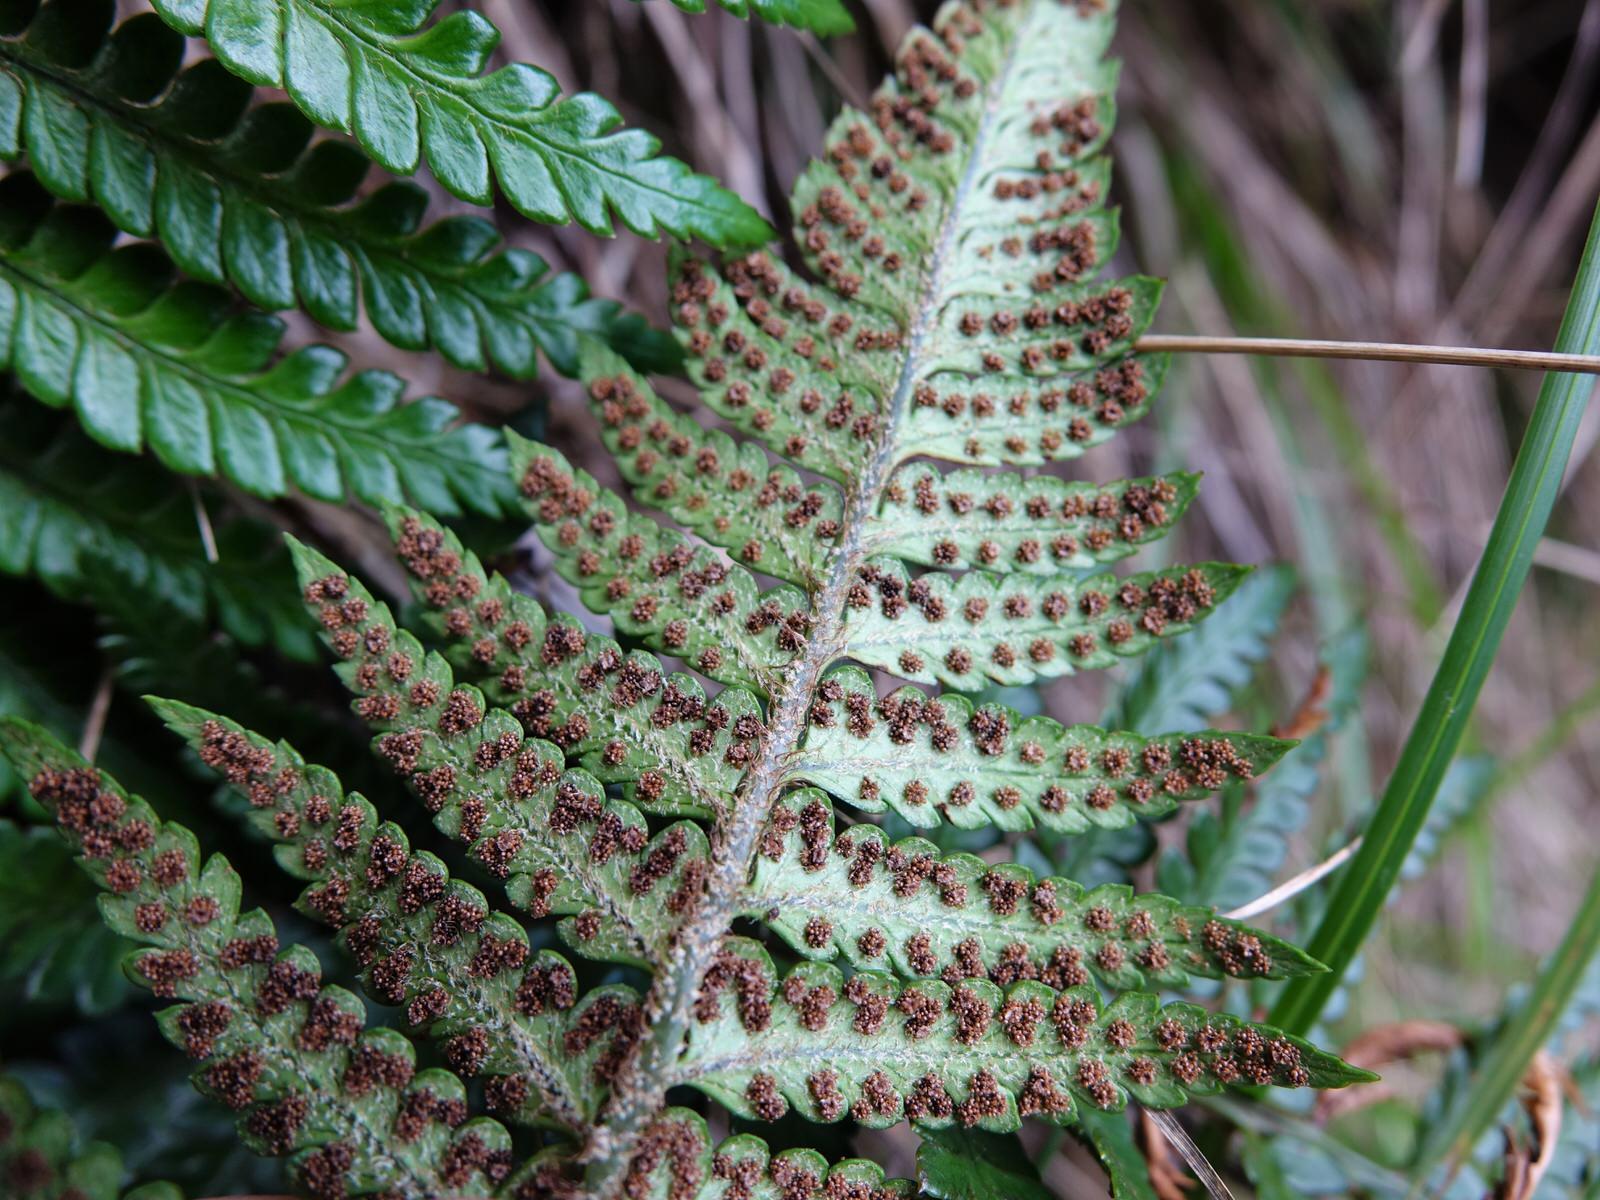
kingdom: Plantae
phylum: Tracheophyta
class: Polypodiopsida
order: Polypodiales
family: Dryopteridaceae
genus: Polystichum
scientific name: Polystichum wawranum
